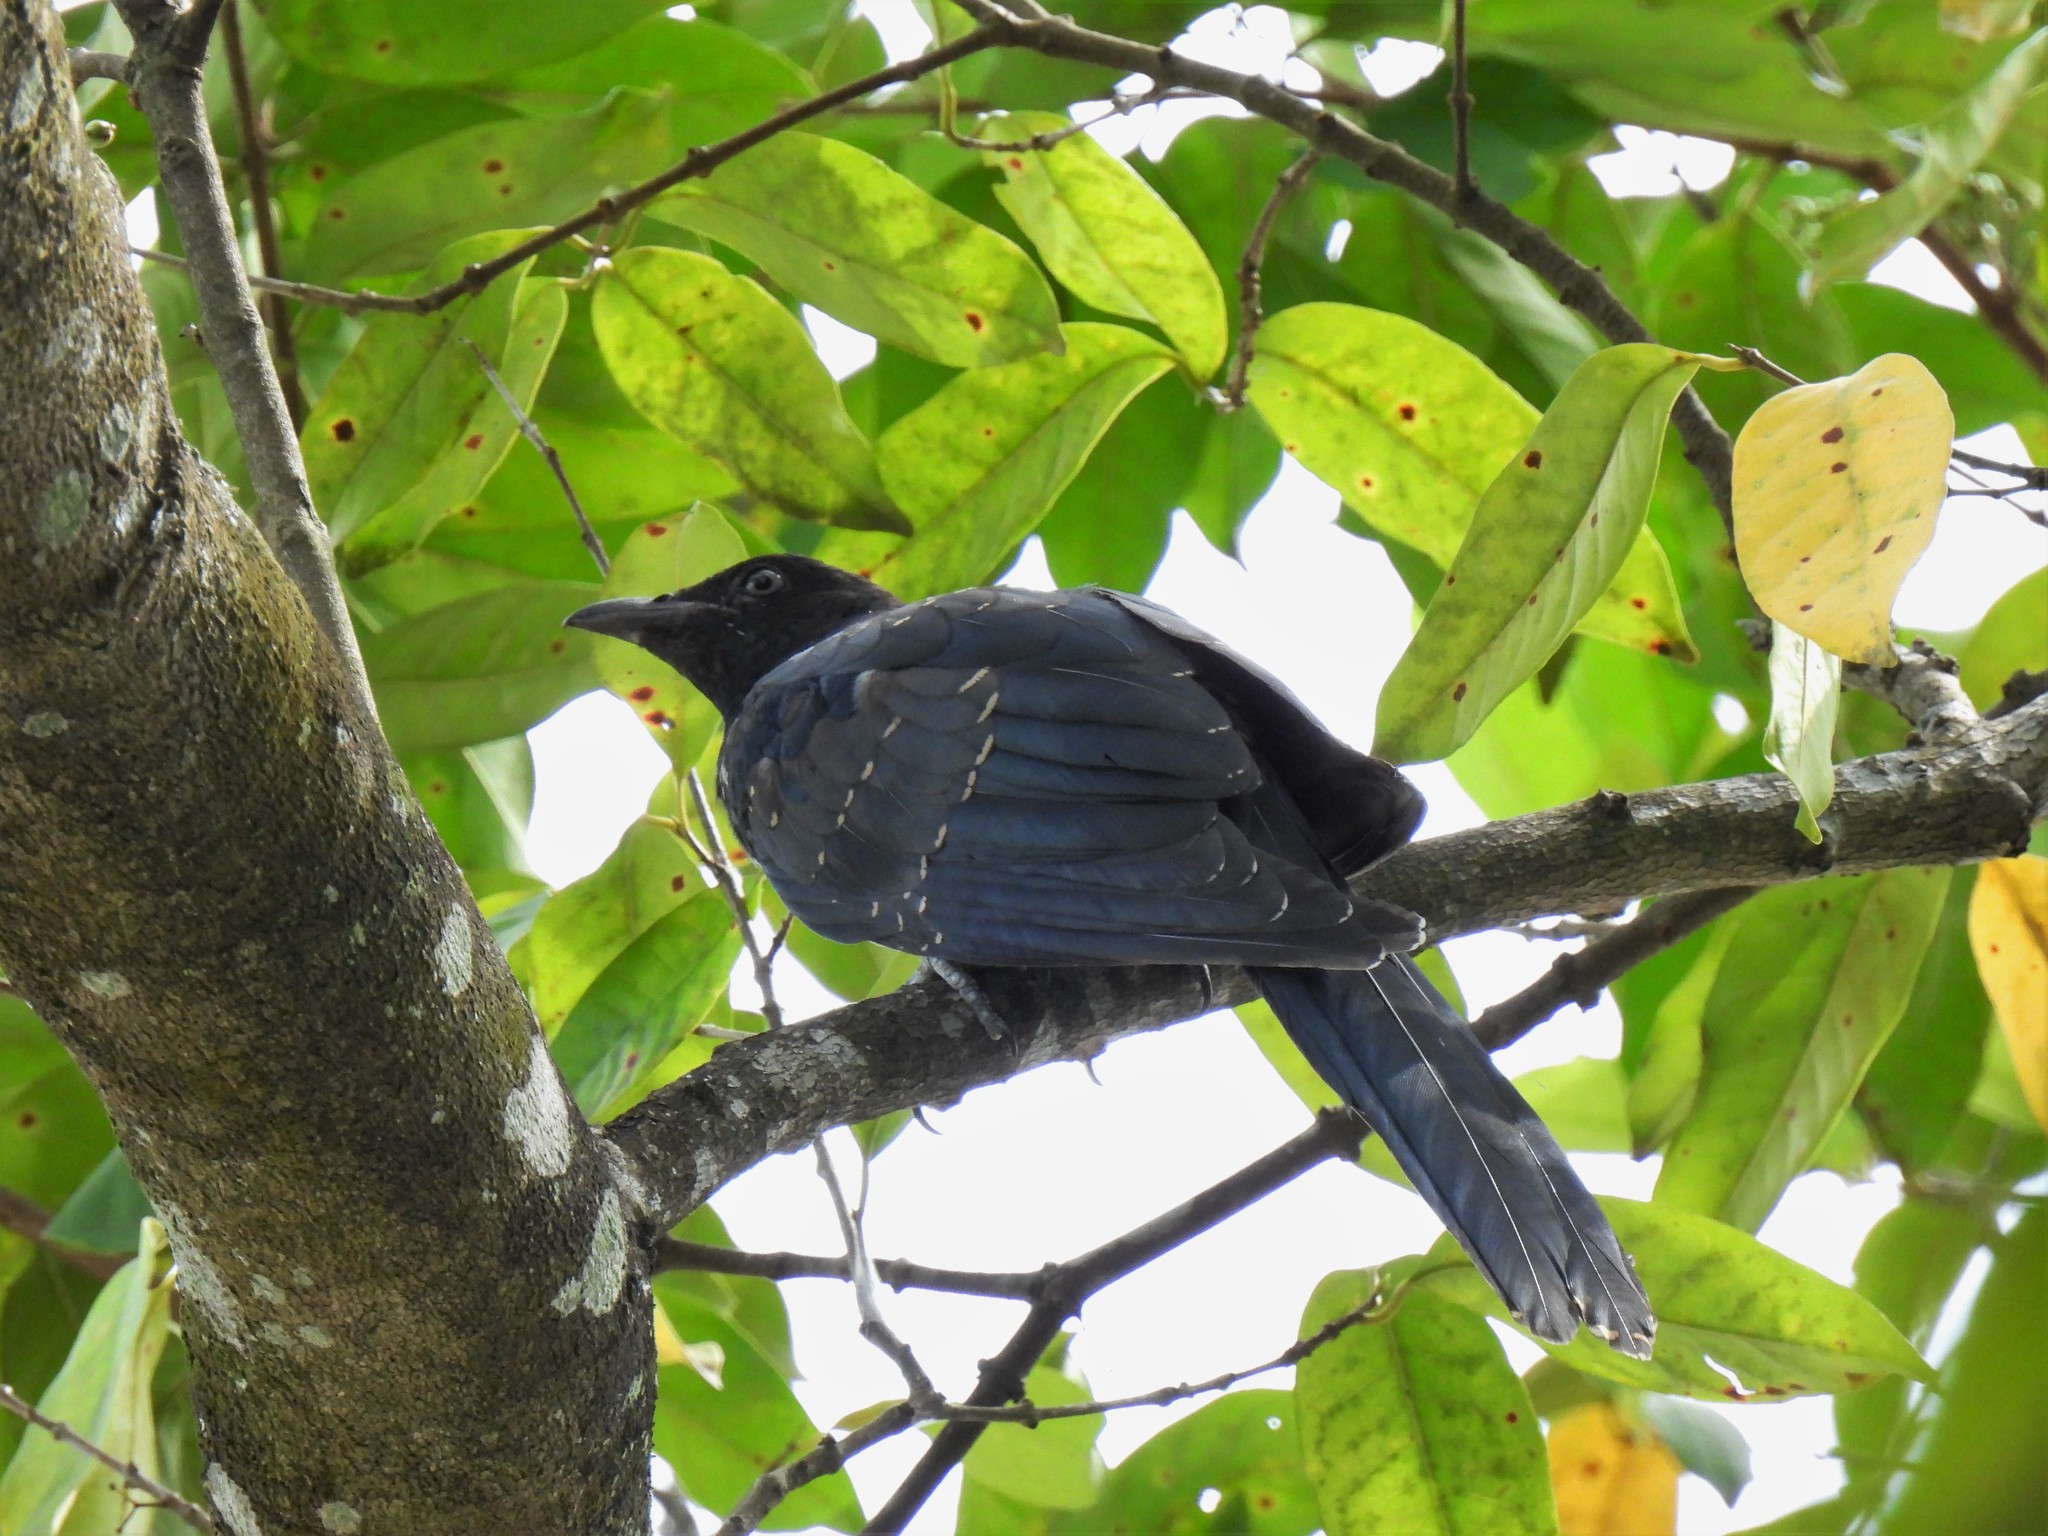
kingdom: Animalia
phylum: Chordata
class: Aves
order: Cuculiformes
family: Cuculidae
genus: Eudynamys
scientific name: Eudynamys scolopaceus
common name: Asian koel
